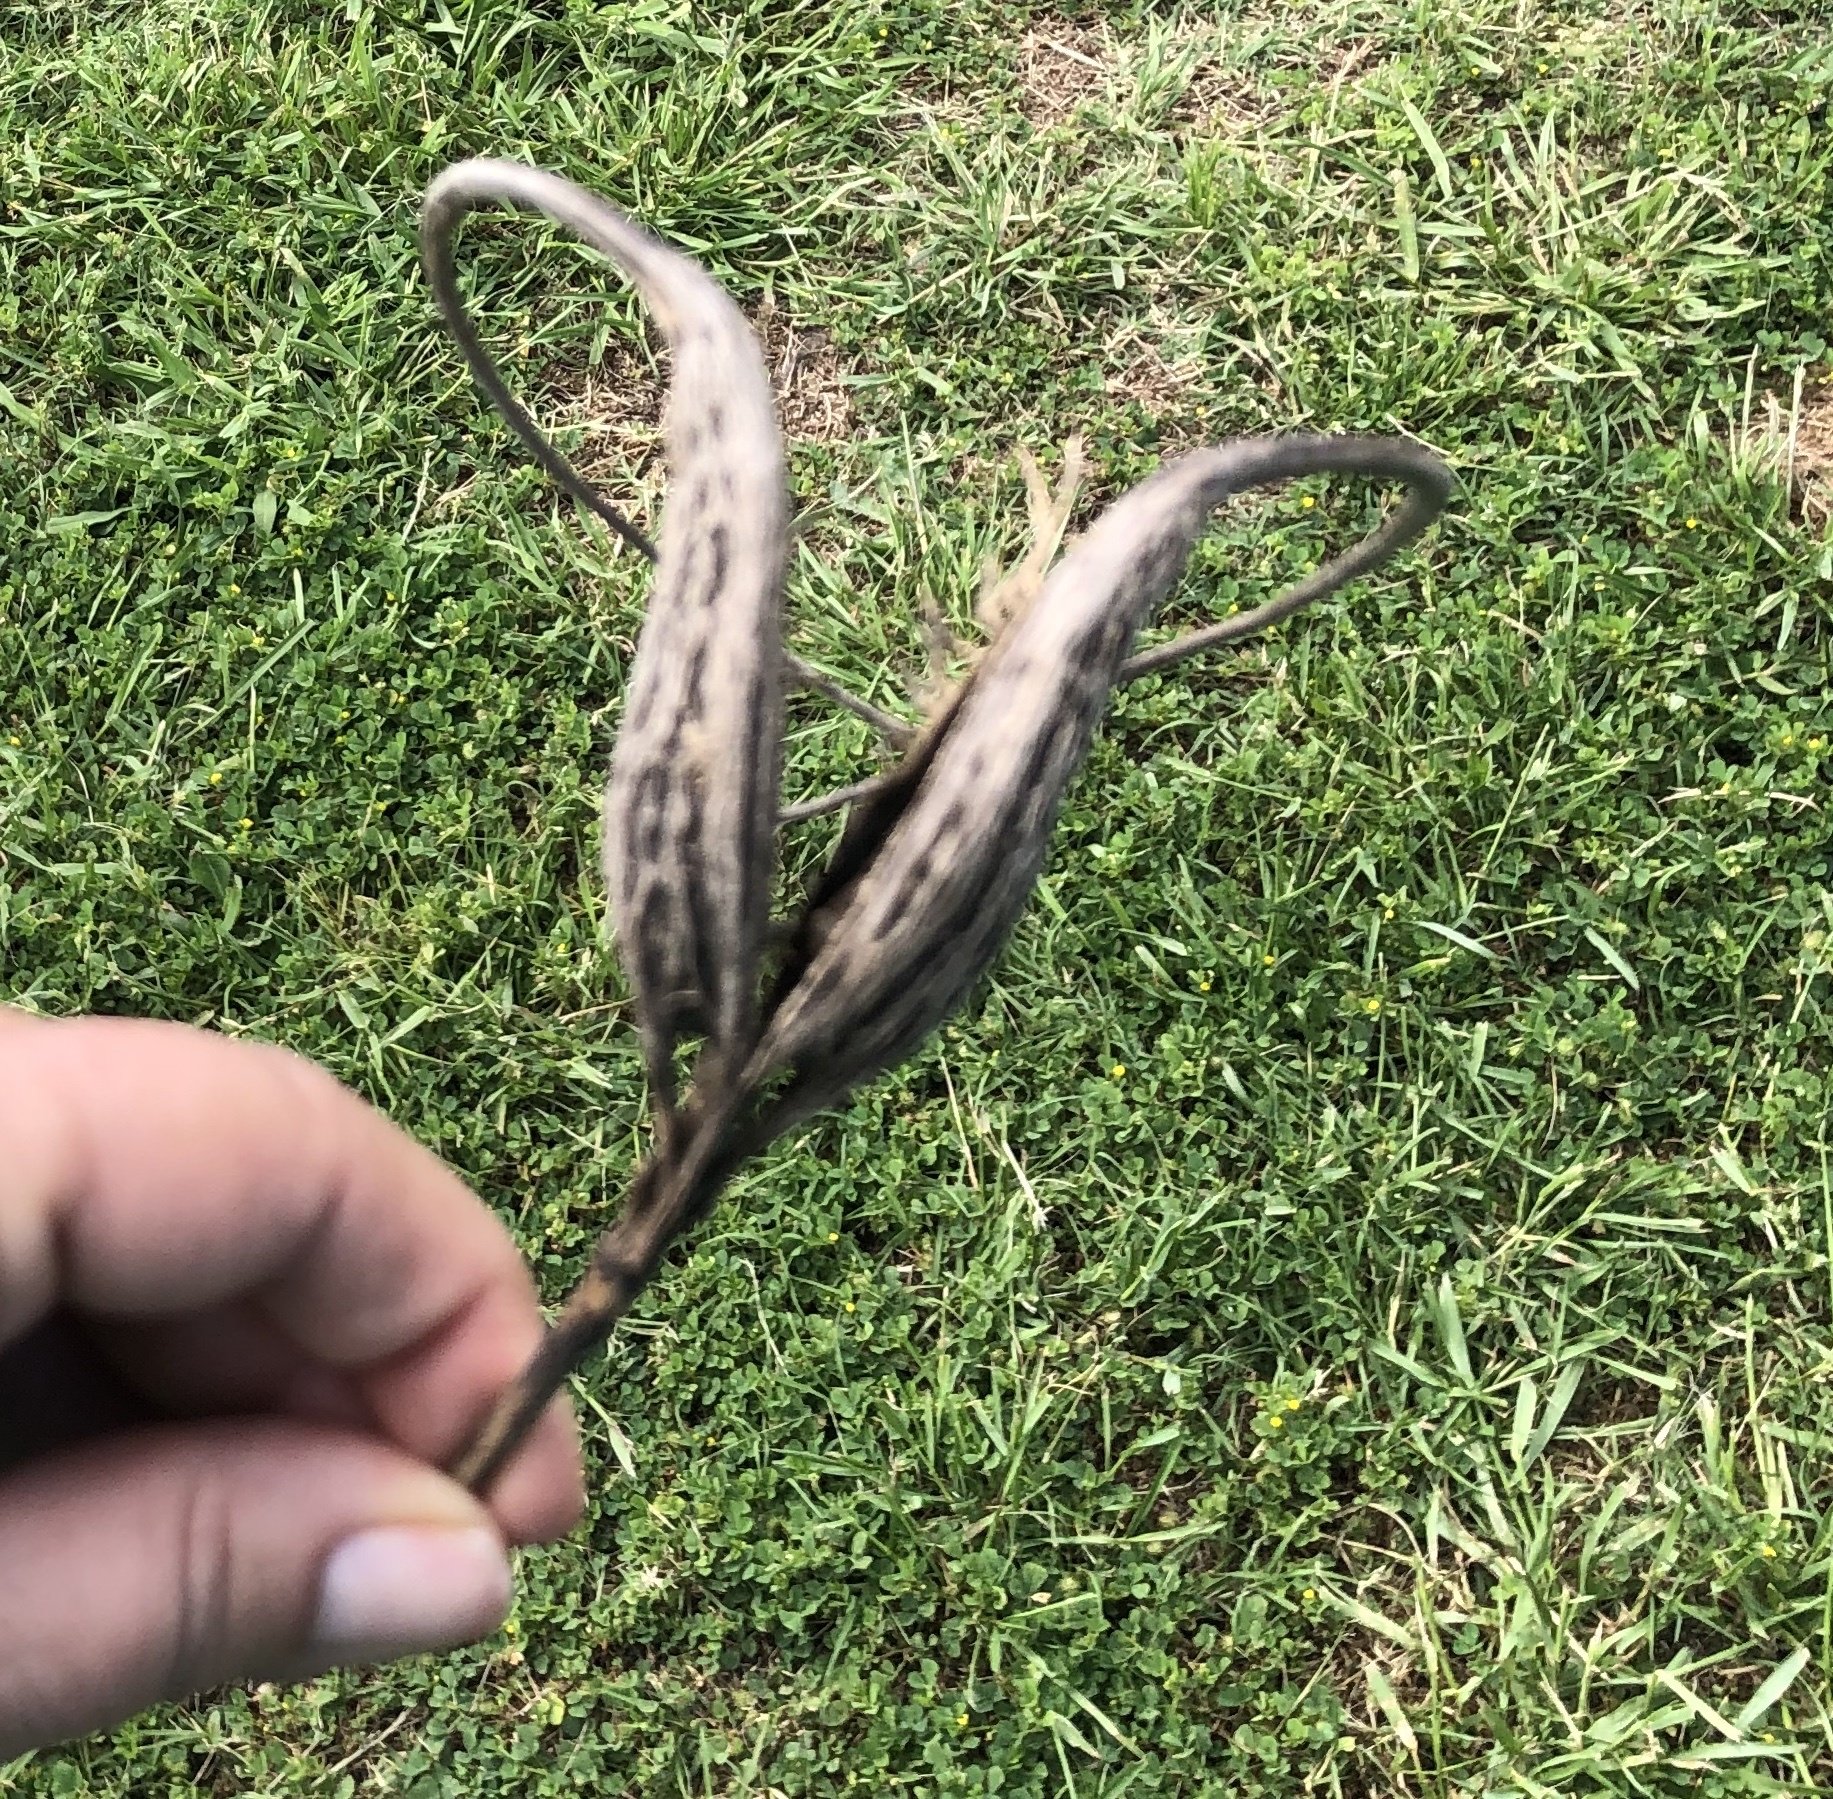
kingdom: Plantae
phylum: Tracheophyta
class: Magnoliopsida
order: Lamiales
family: Martyniaceae
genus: Proboscidea
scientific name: Proboscidea louisianica
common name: Elephant tusks
